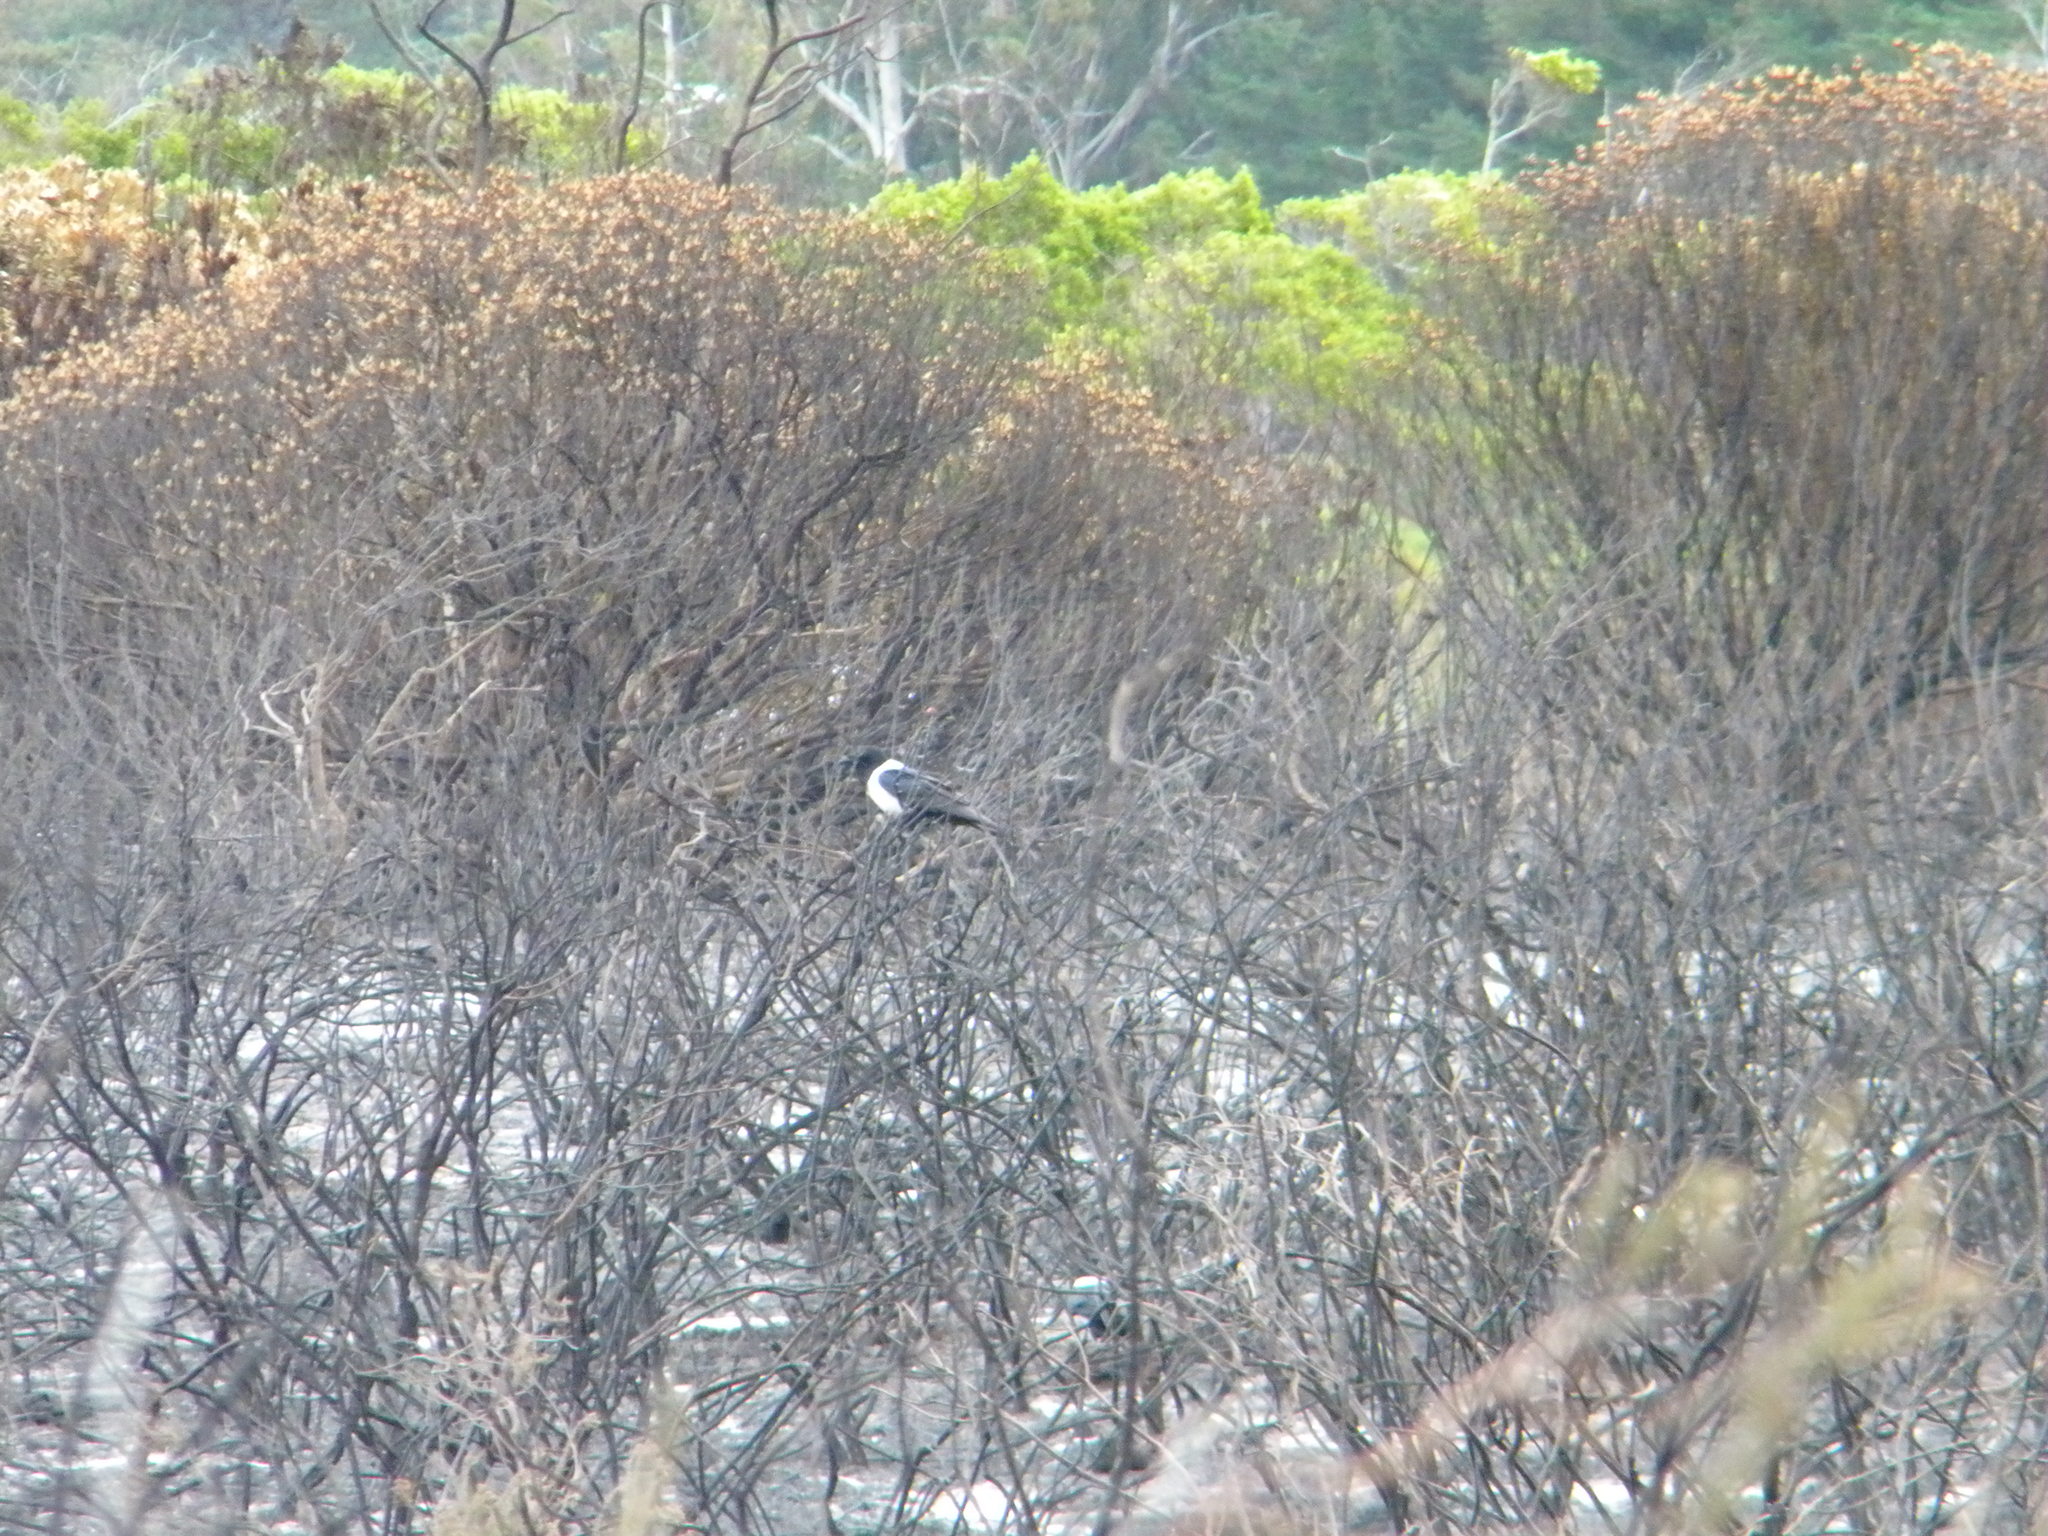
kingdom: Animalia
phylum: Chordata
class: Aves
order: Passeriformes
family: Corvidae
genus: Corvus
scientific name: Corvus albus
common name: Pied crow
